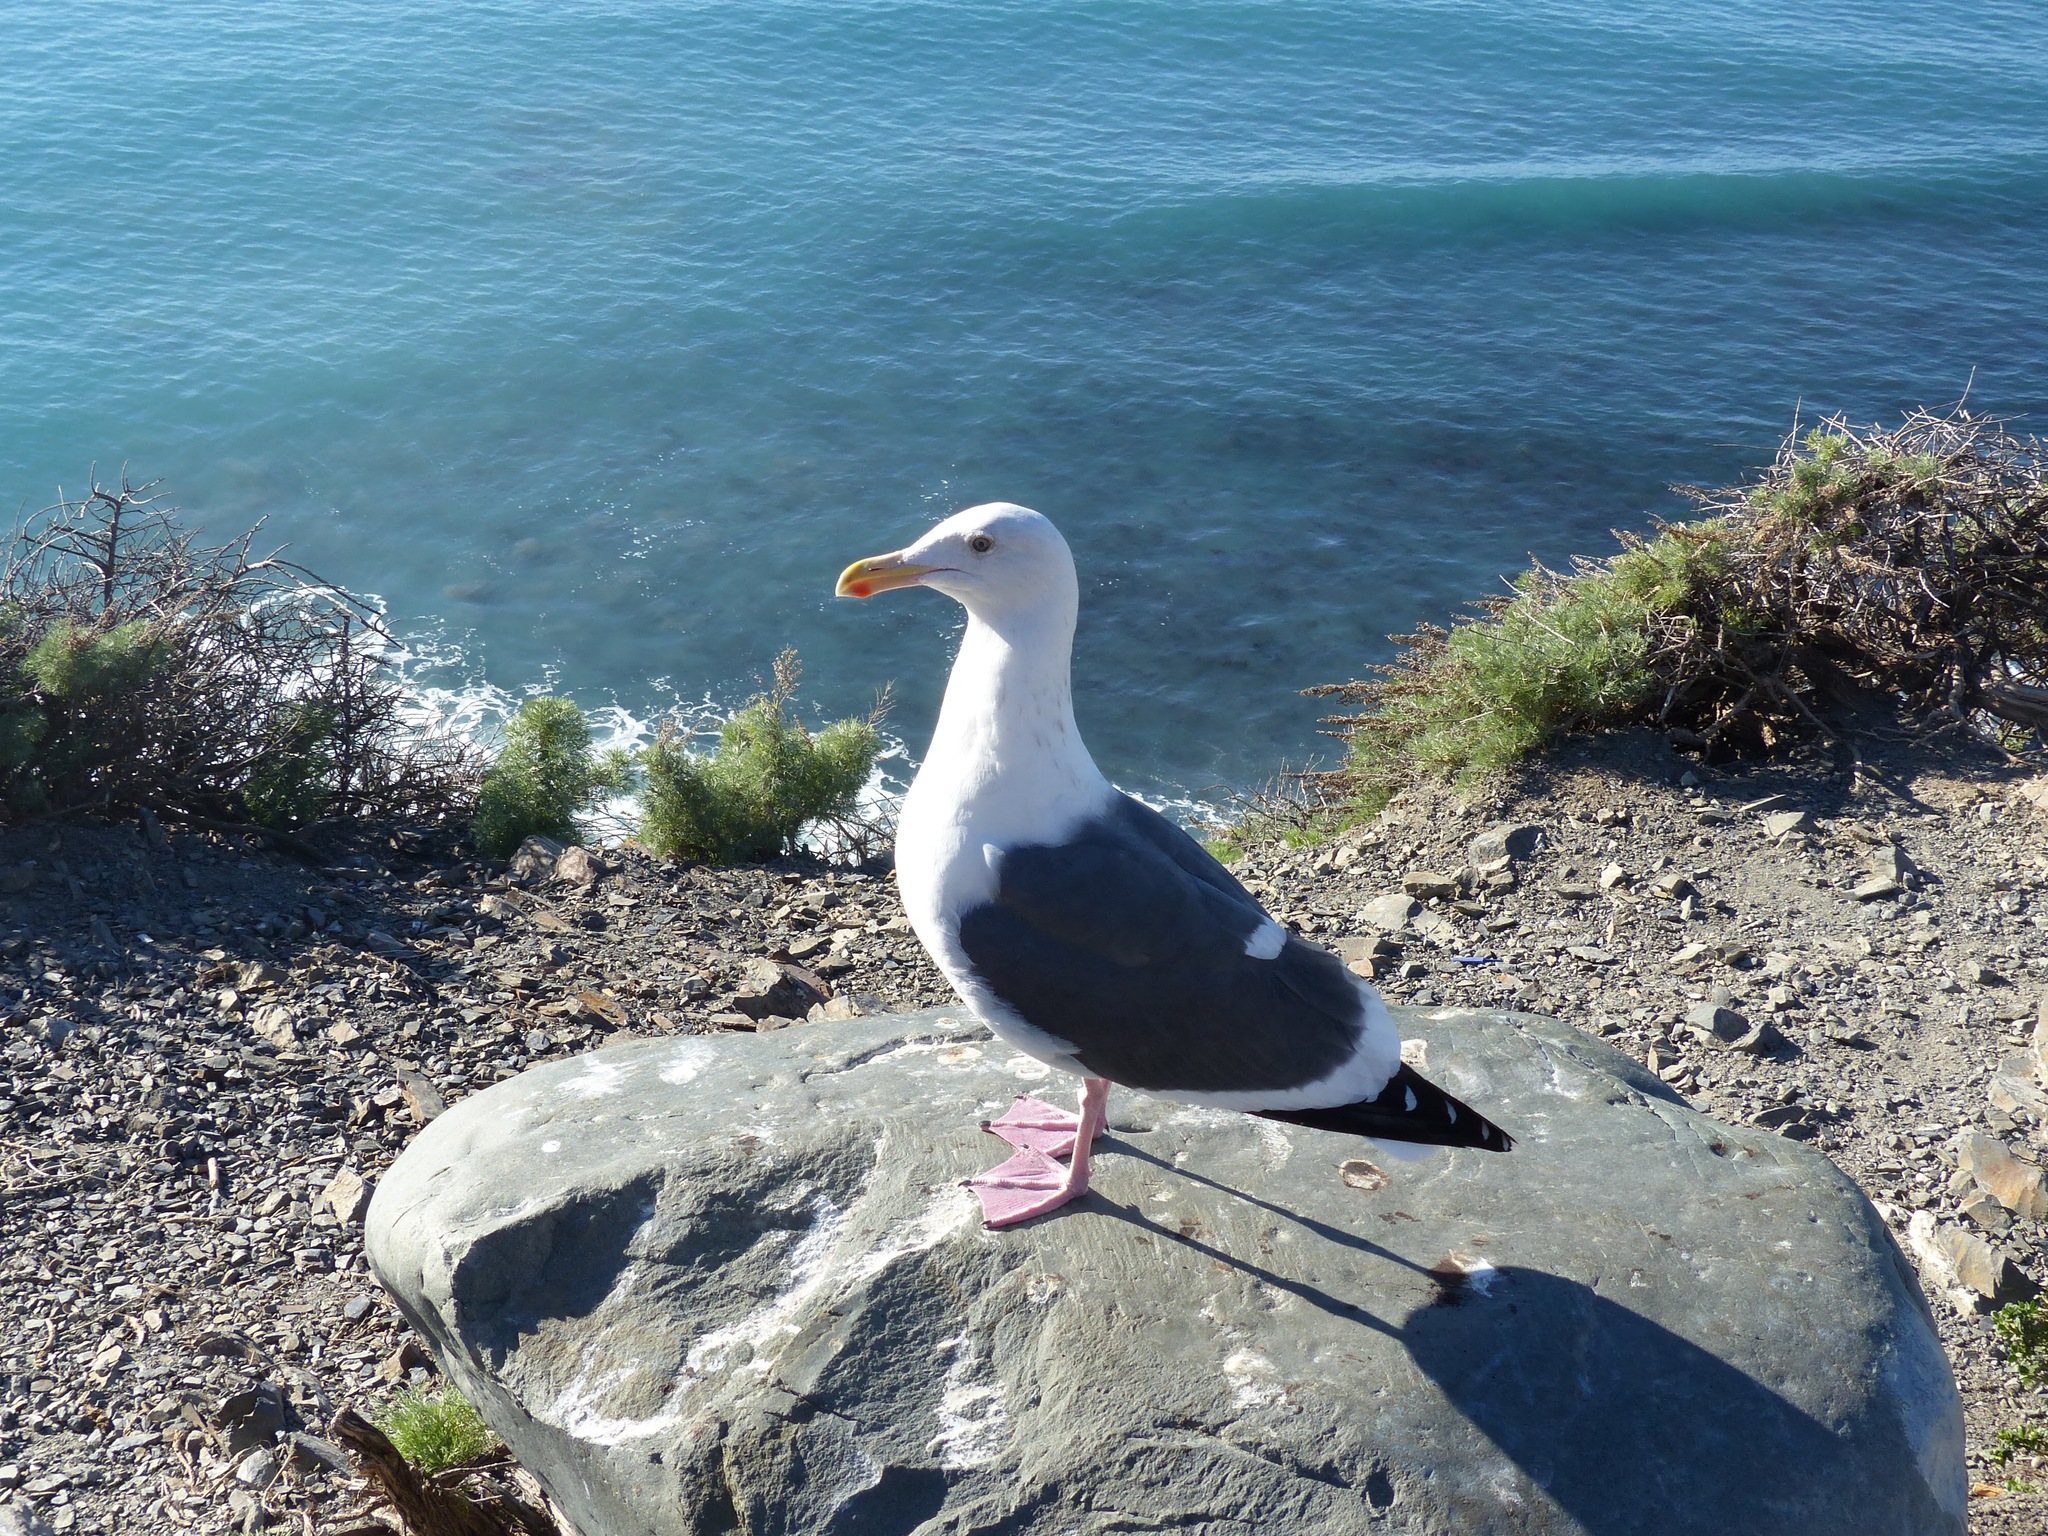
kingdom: Animalia
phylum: Chordata
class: Aves
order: Charadriiformes
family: Laridae
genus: Larus
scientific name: Larus occidentalis
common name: Western gull
